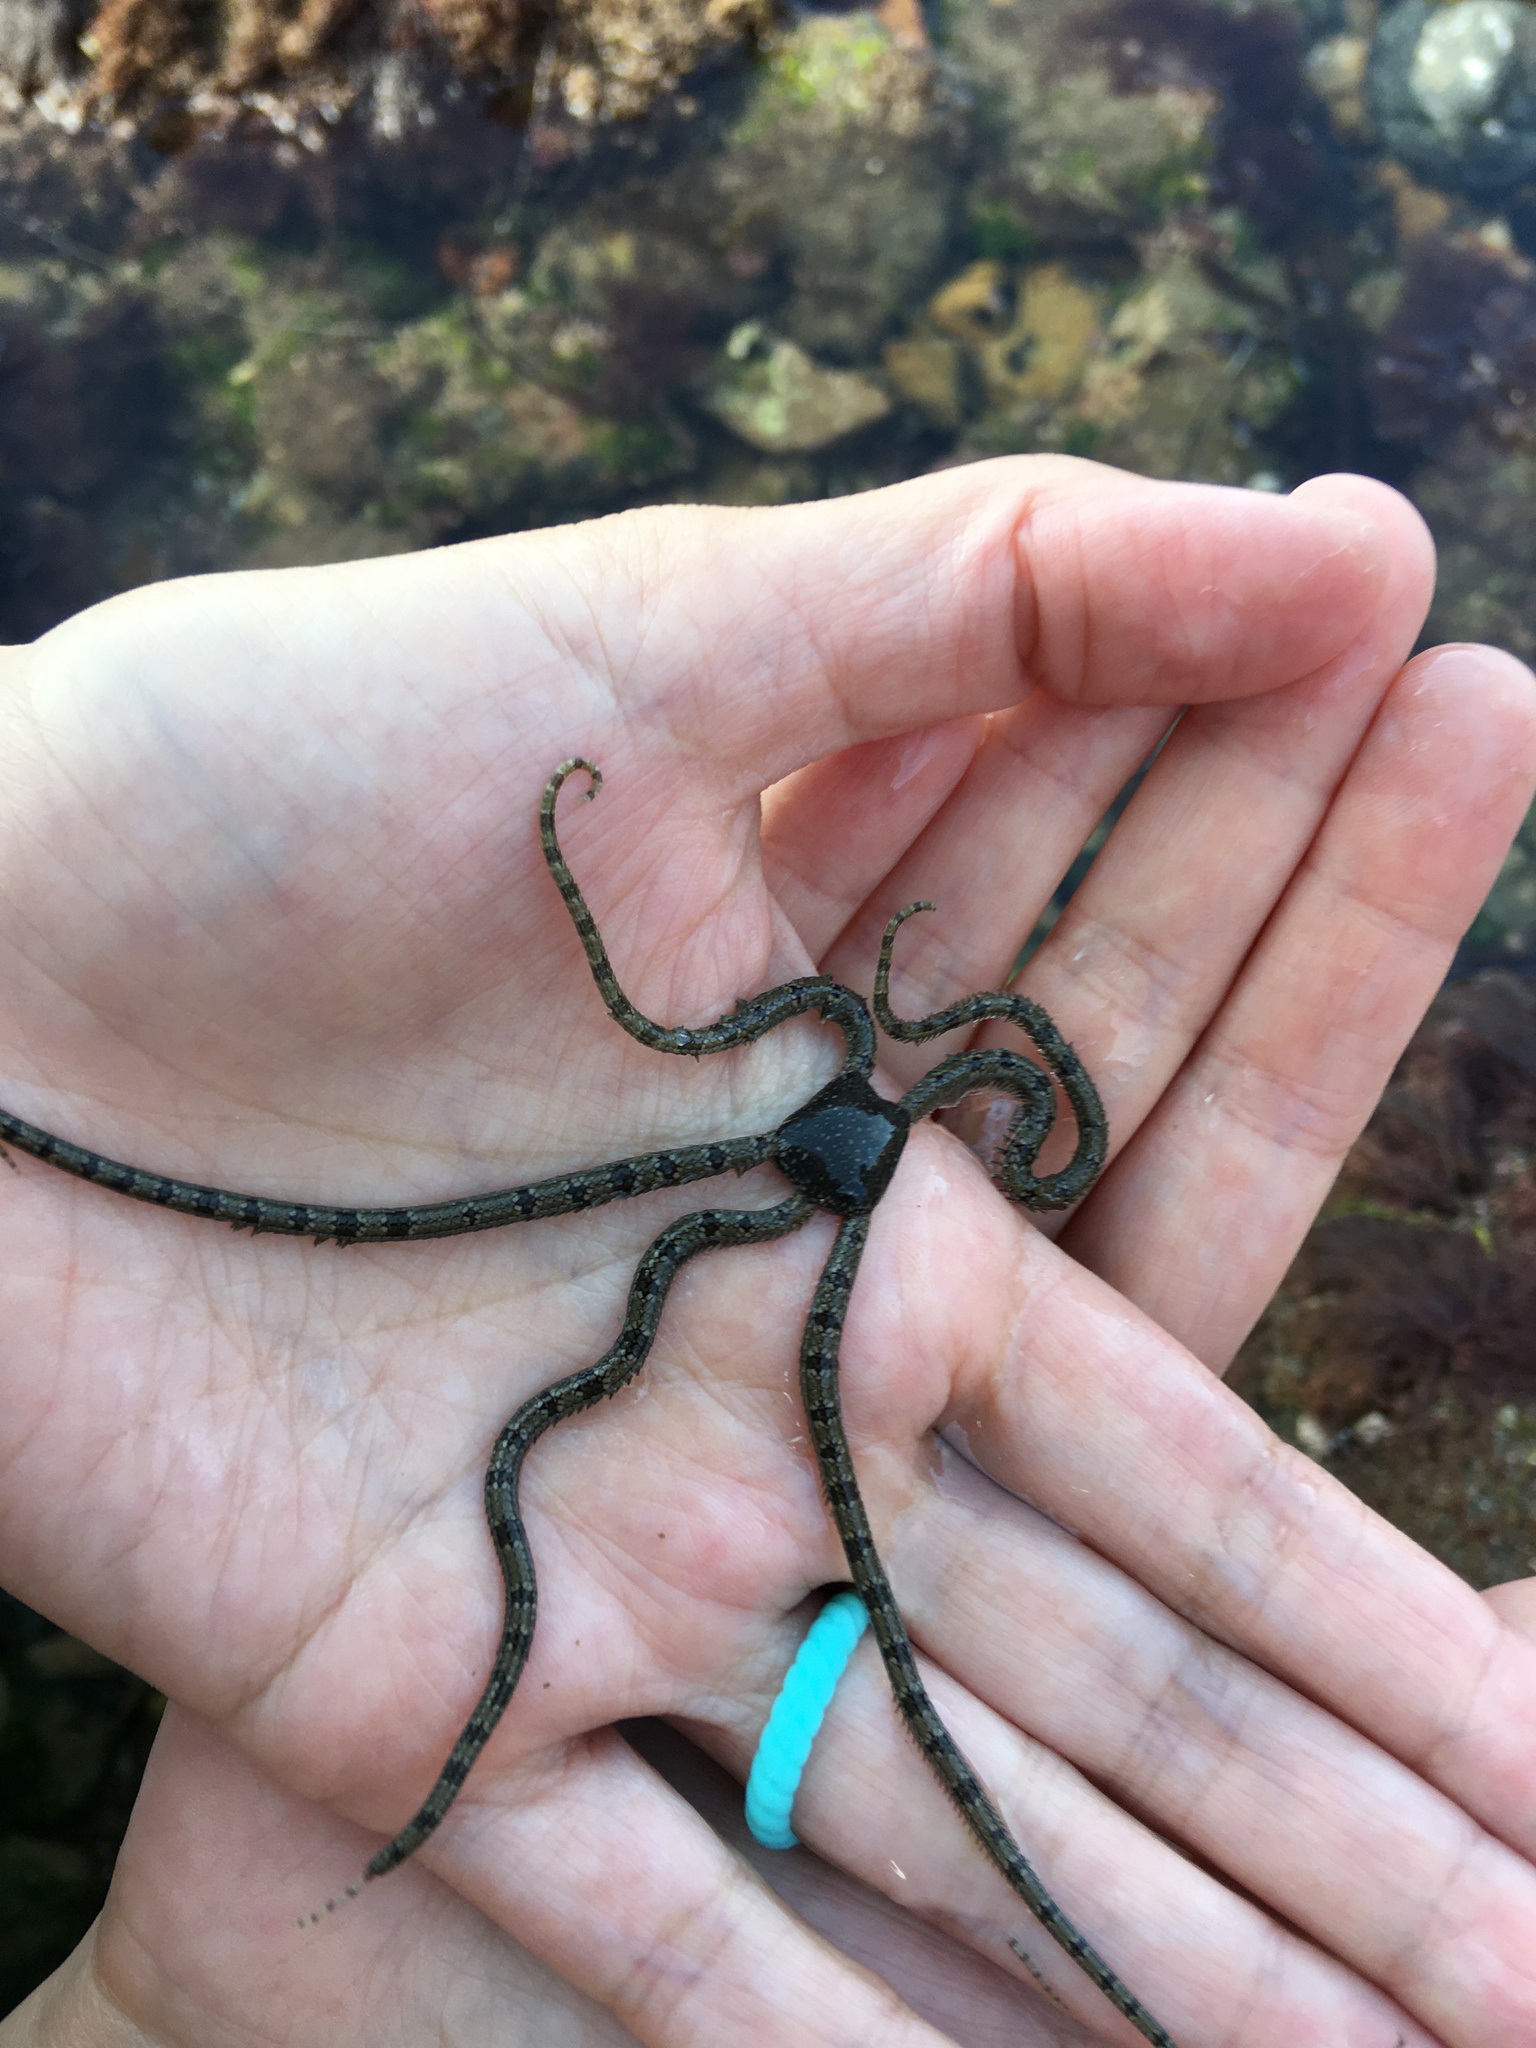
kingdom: Animalia
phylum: Echinodermata
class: Ophiuroidea
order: Amphilepidida
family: Ophionereididae
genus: Ophionereis
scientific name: Ophionereis annulata
